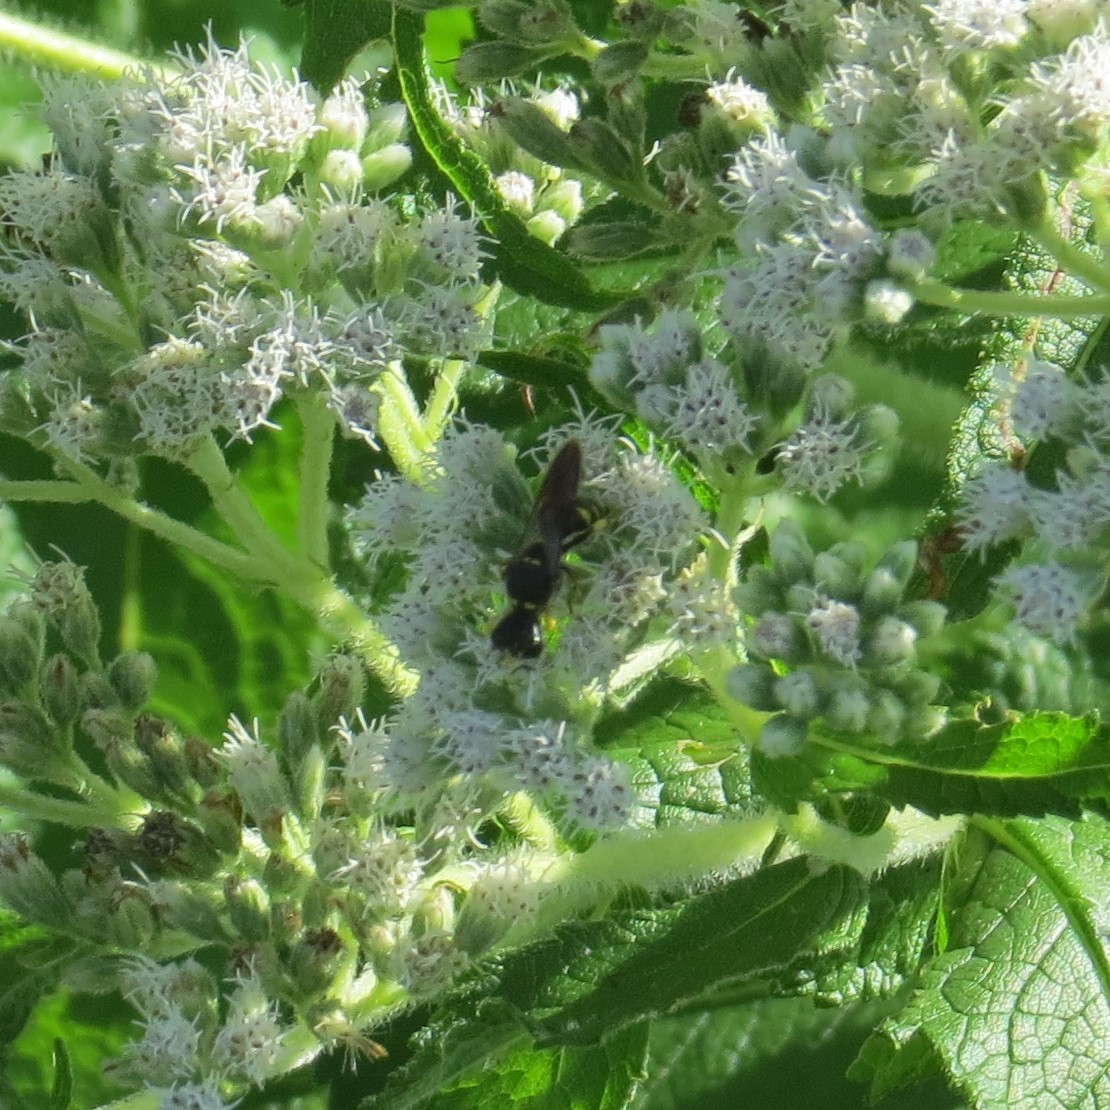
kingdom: Animalia
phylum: Arthropoda
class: Insecta
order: Hymenoptera
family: Crabronidae
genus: Ectemnius
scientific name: Ectemnius maculosus
